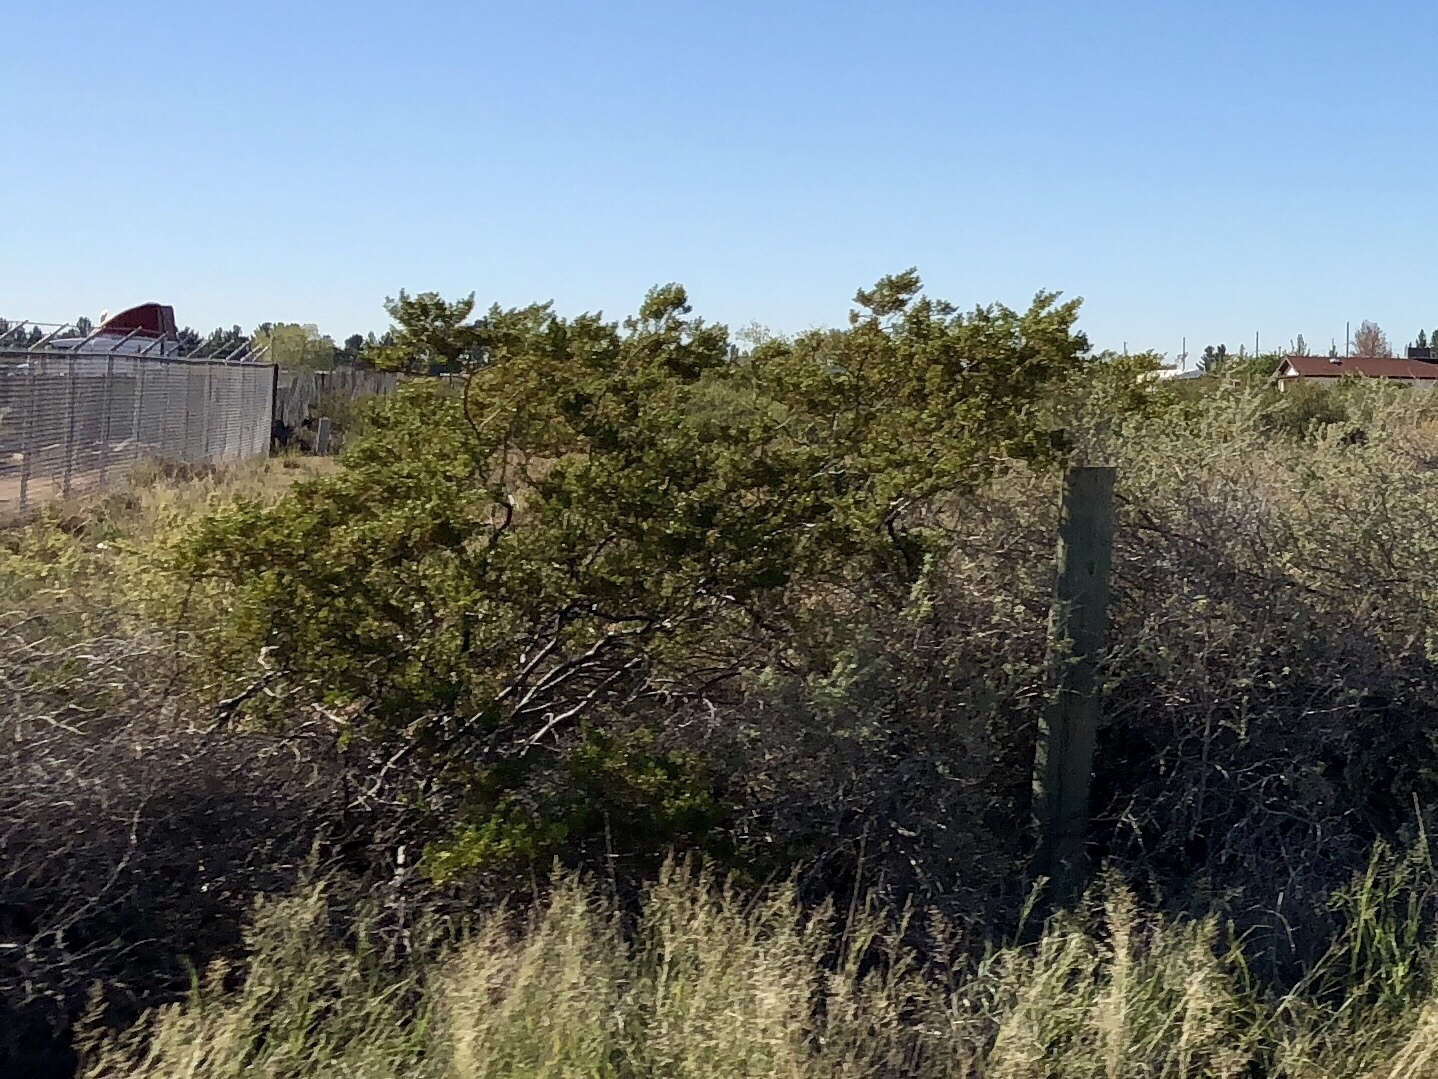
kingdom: Plantae
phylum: Tracheophyta
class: Magnoliopsida
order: Zygophyllales
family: Zygophyllaceae
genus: Larrea
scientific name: Larrea tridentata
